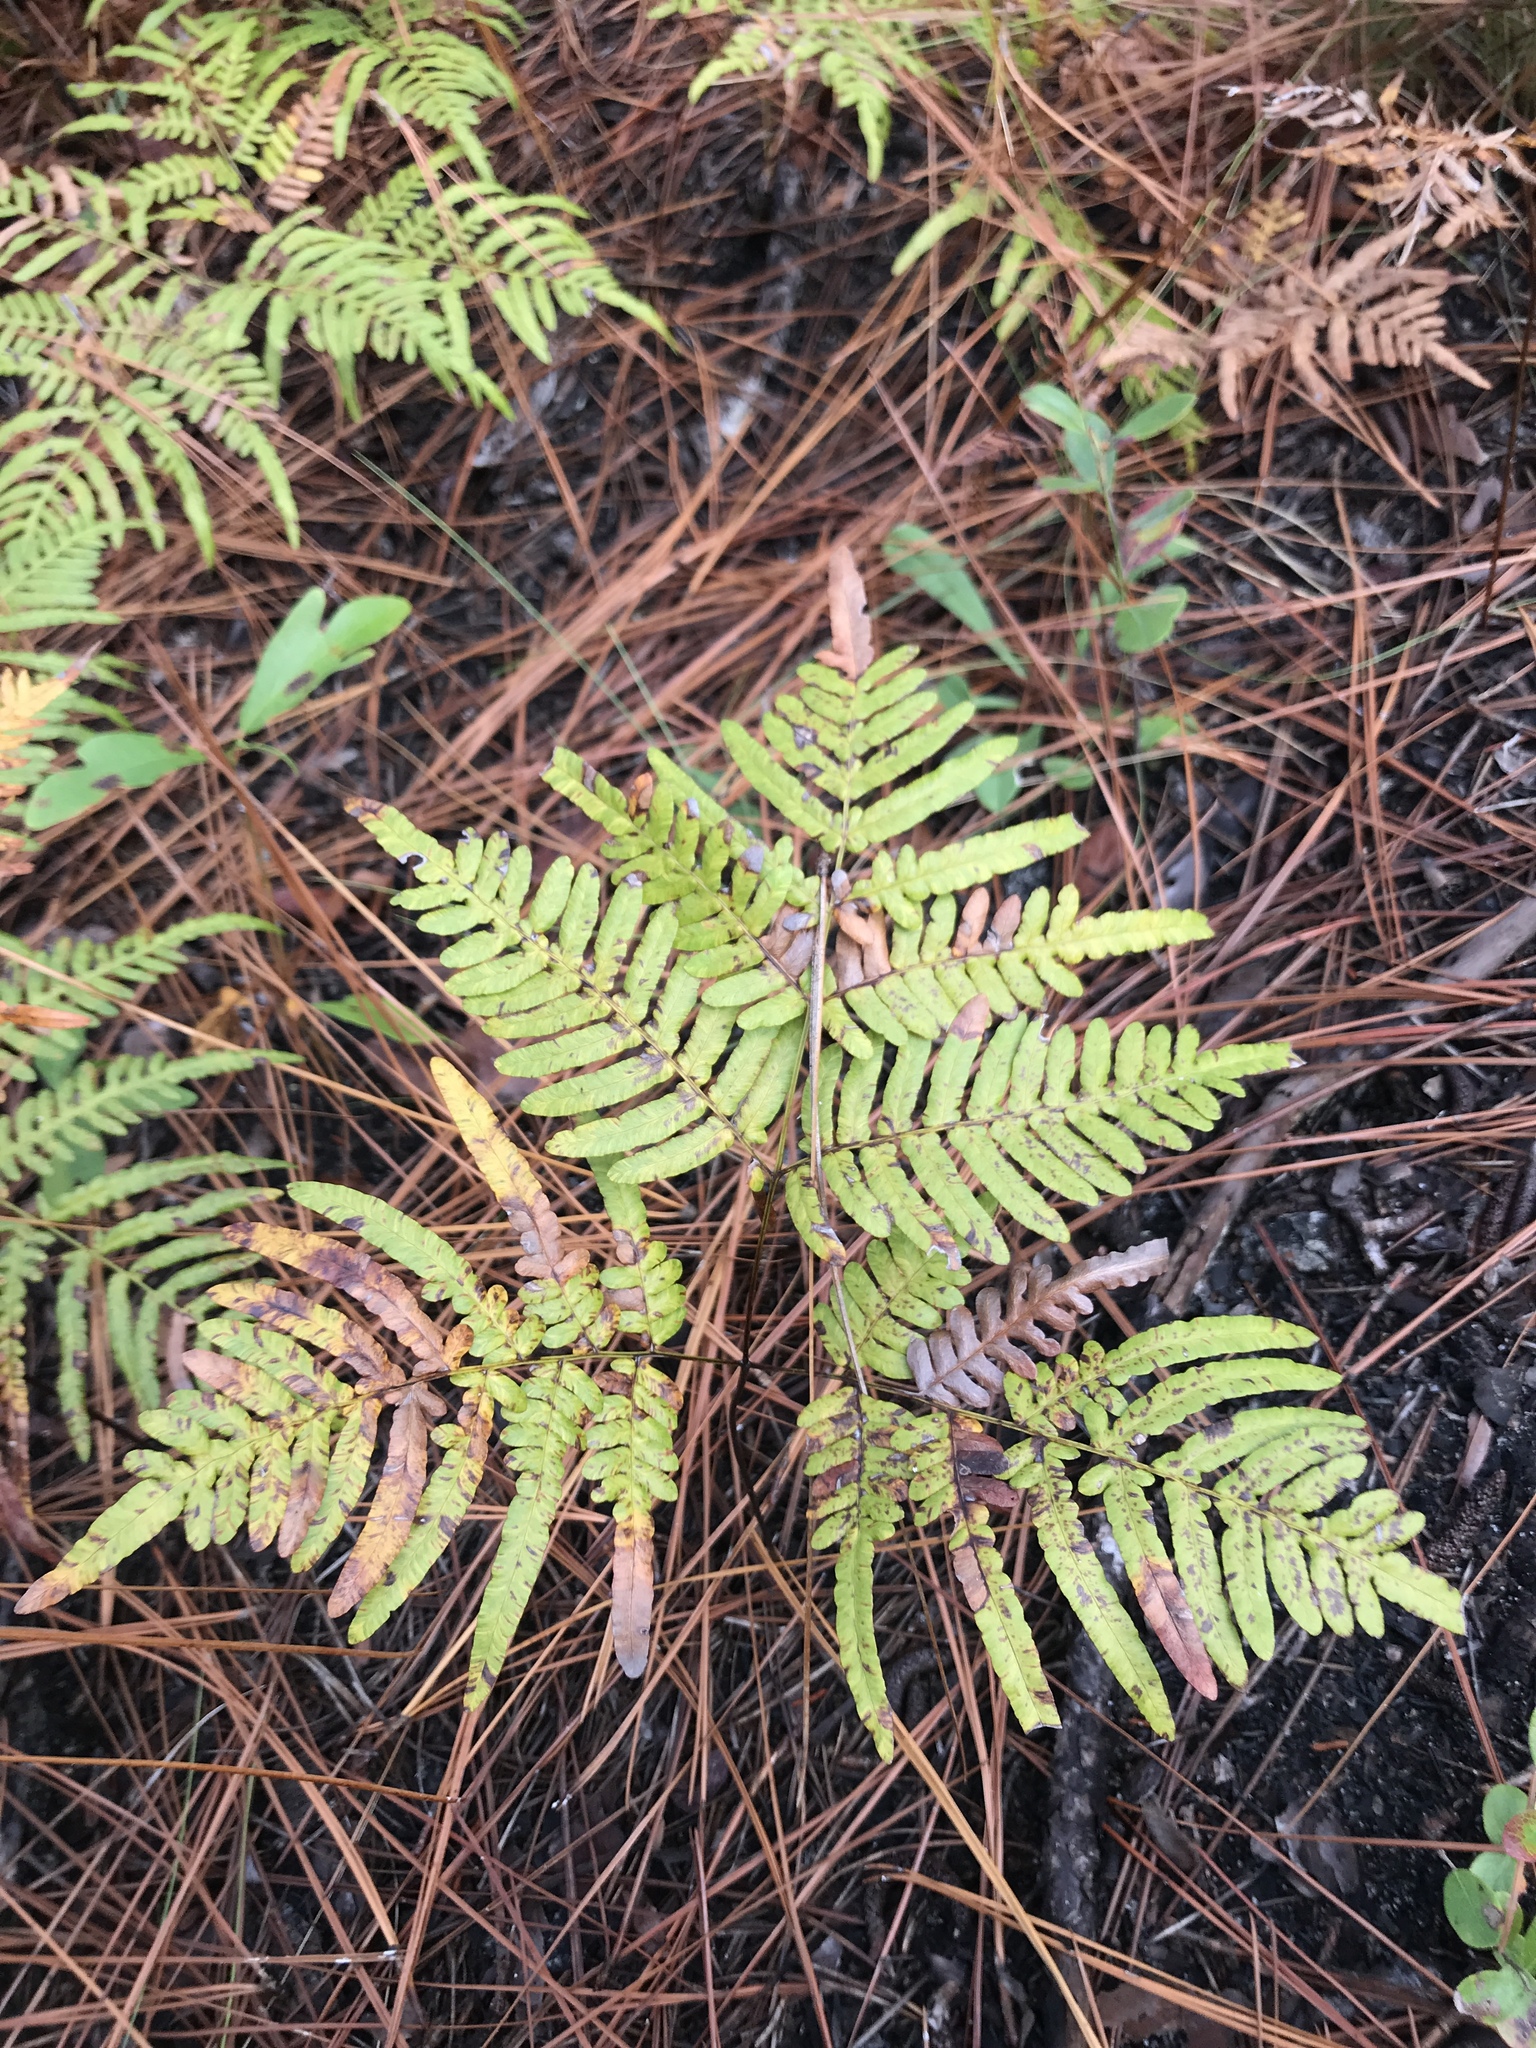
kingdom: Plantae
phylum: Tracheophyta
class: Polypodiopsida
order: Polypodiales
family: Dennstaedtiaceae
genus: Pteridium
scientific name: Pteridium
